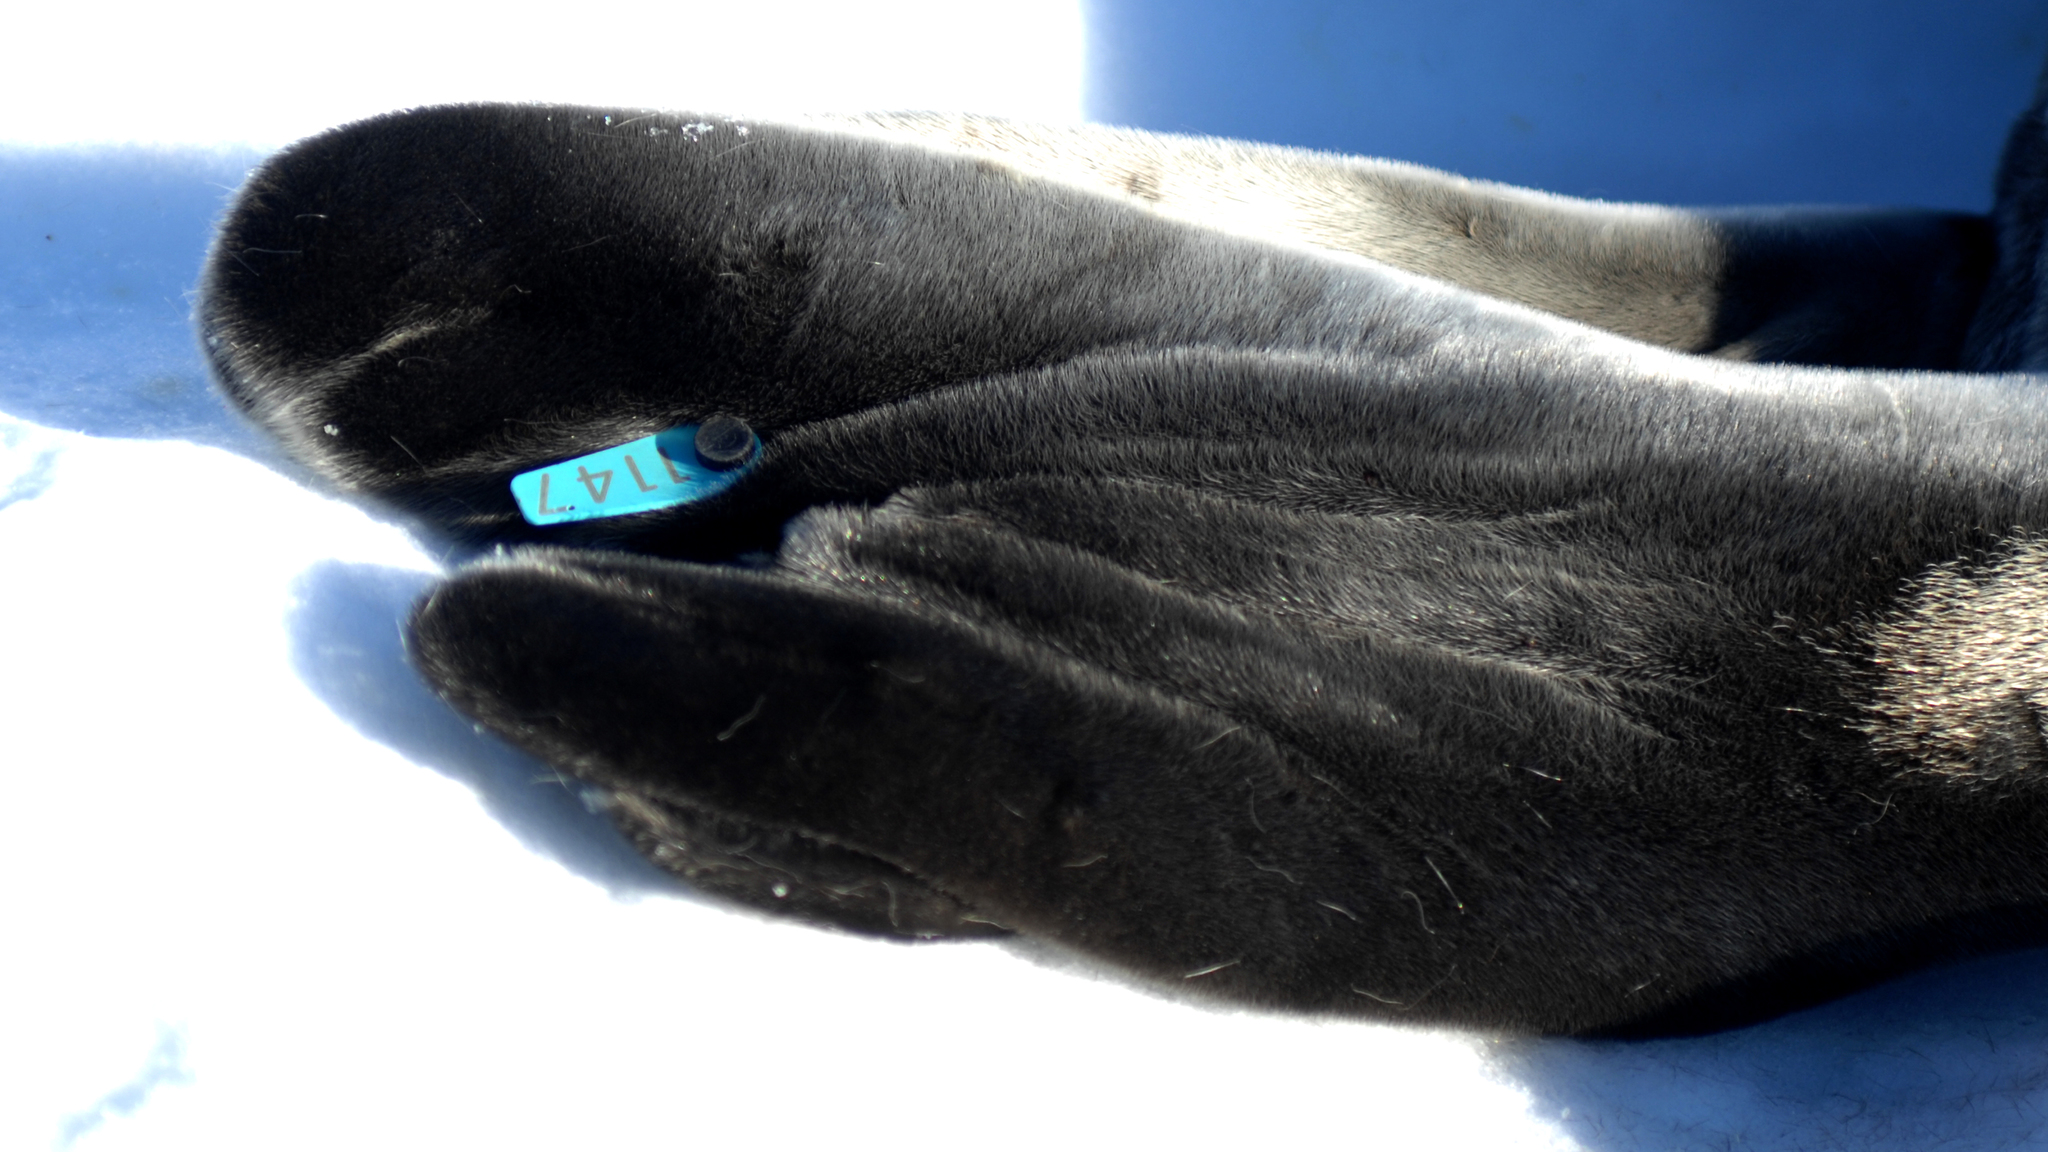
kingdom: Animalia
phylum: Chordata
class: Mammalia
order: Carnivora
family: Phocidae
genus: Leptonychotes
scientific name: Leptonychotes weddellii
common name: Weddell seal
